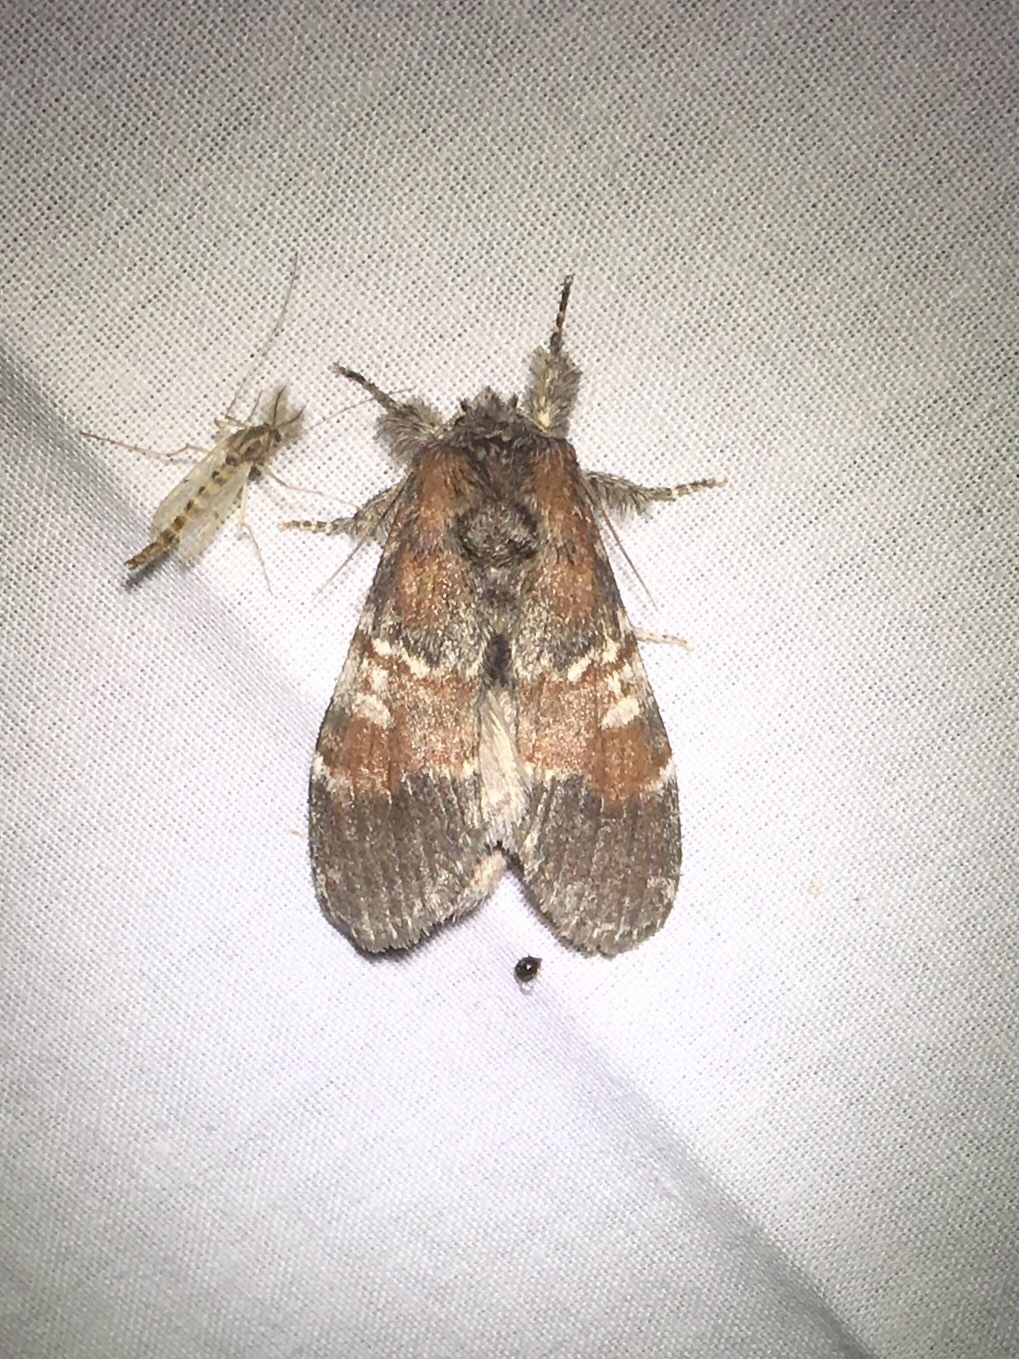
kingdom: Animalia
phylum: Arthropoda
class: Insecta
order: Lepidoptera
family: Notodontidae
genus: Peridea
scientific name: Peridea ferruginea
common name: Chocolate prominent
